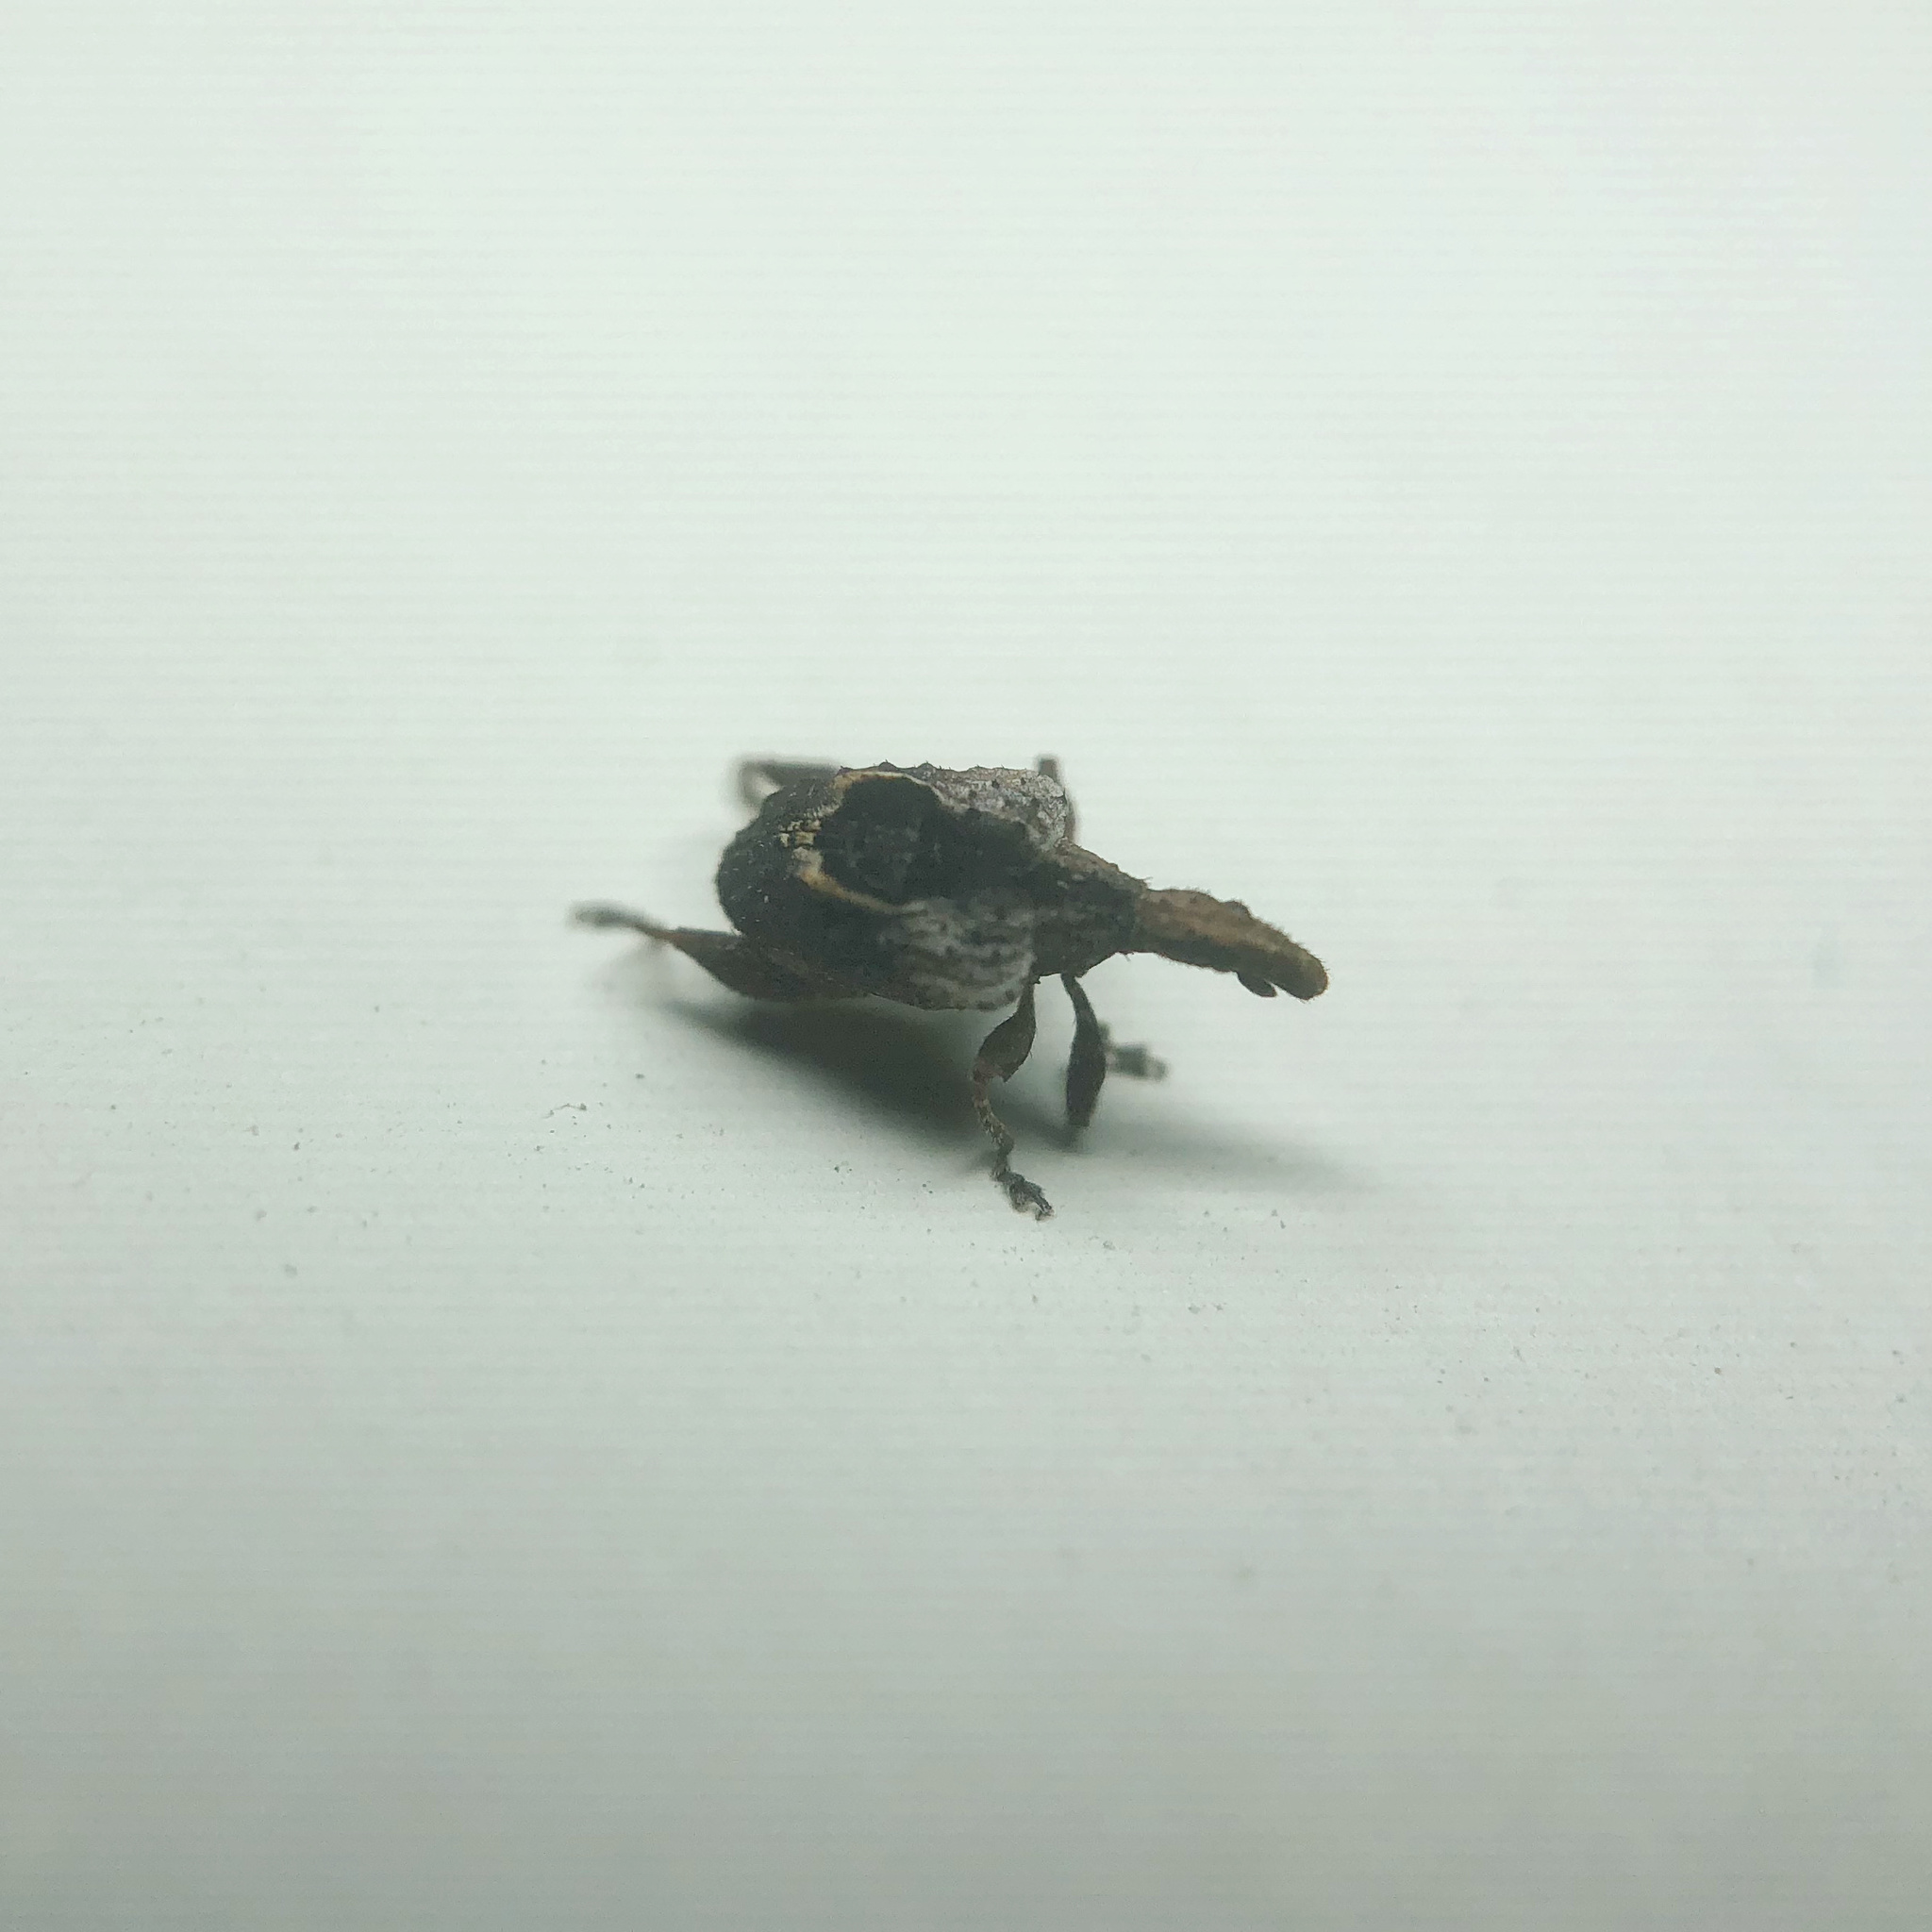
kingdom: Animalia
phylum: Arthropoda
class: Insecta
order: Coleoptera
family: Curculionidae
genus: Stephanorrhynchus
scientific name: Stephanorrhynchus crassus
